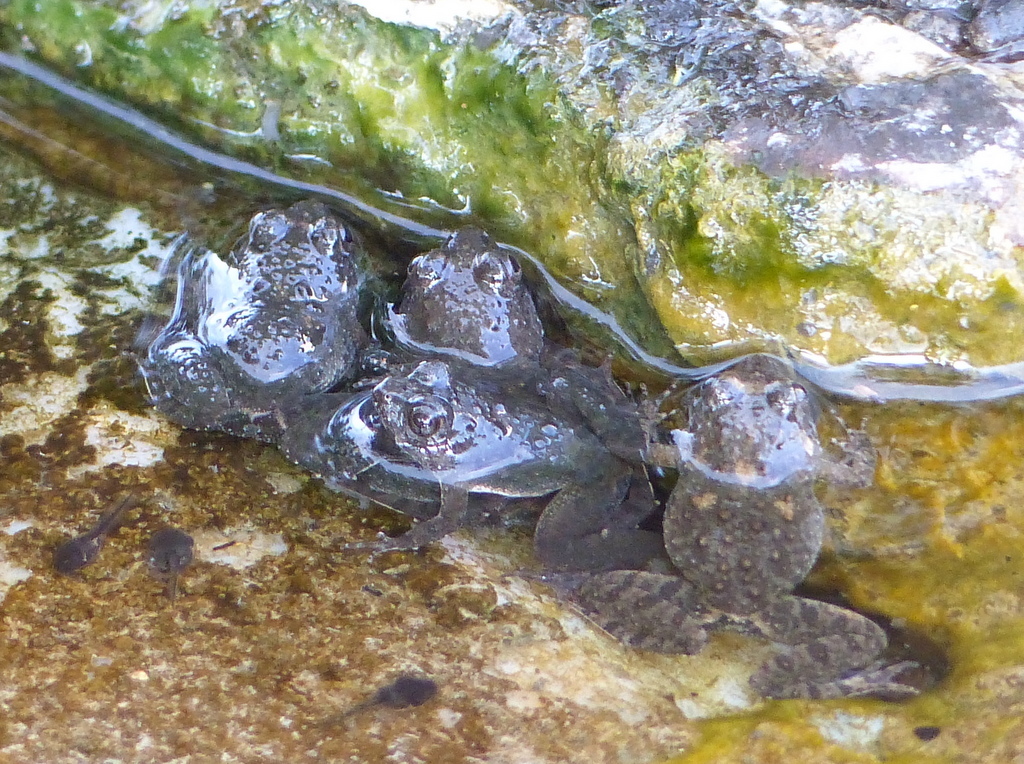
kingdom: Animalia
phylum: Chordata
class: Amphibia
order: Anura
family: Phrynobatrachidae
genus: Phrynobatrachus
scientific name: Phrynobatrachus natalensis
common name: Snoring puddle frog
